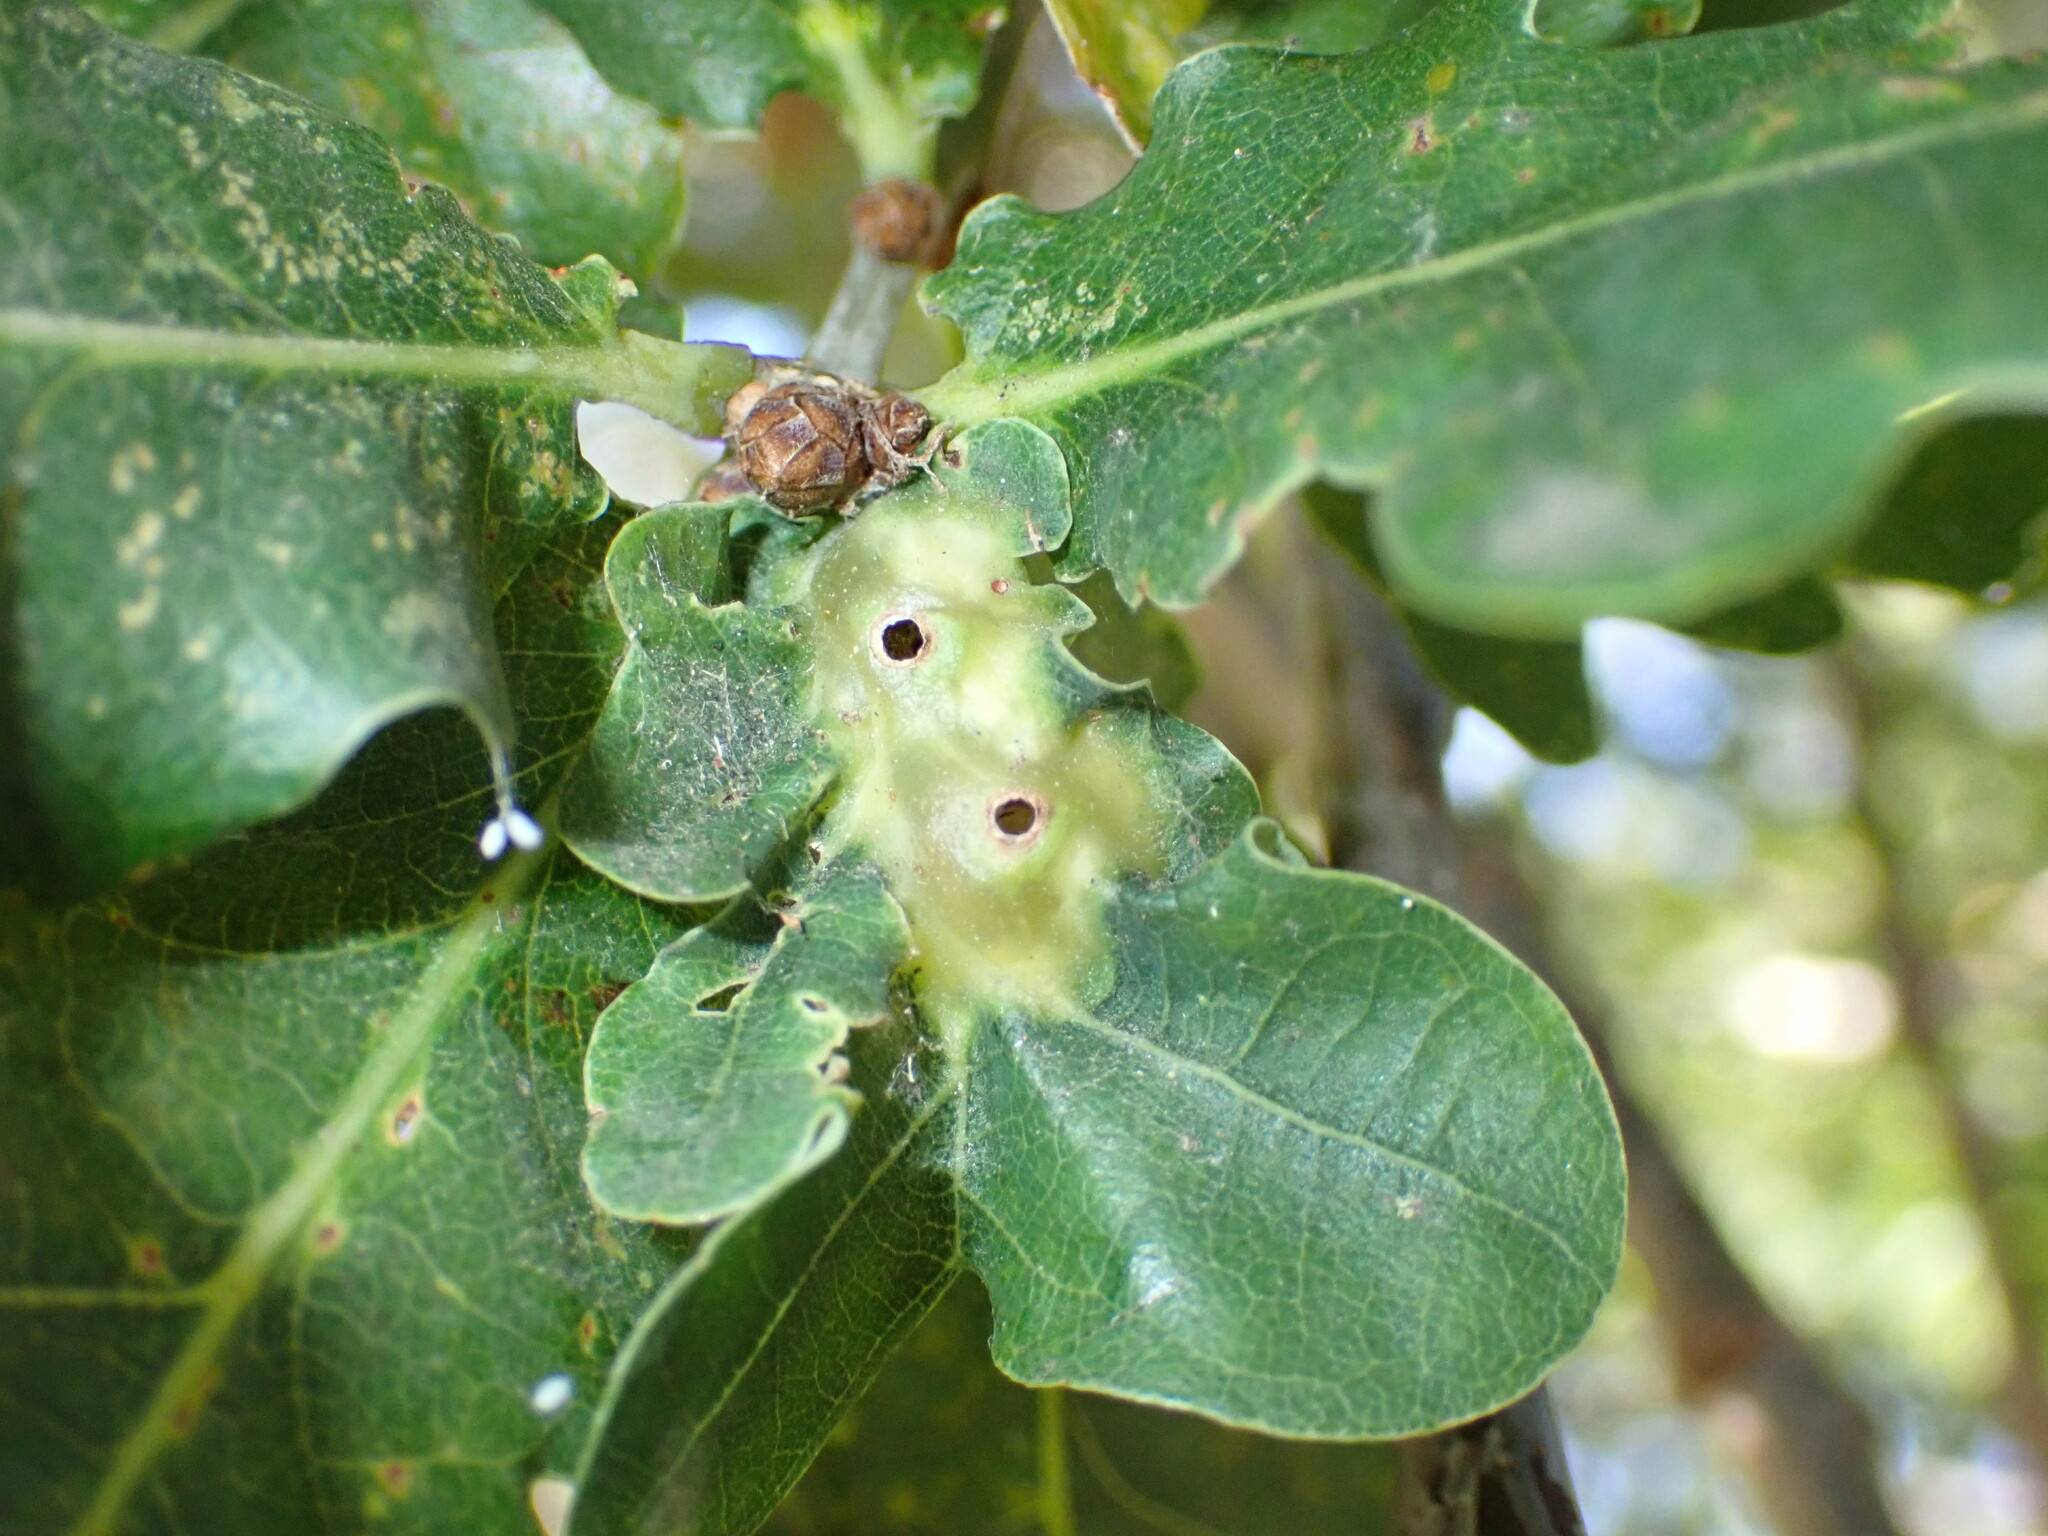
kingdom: Animalia
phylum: Arthropoda
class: Insecta
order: Hymenoptera
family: Cynipidae
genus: Andricus
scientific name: Andricus curvator
